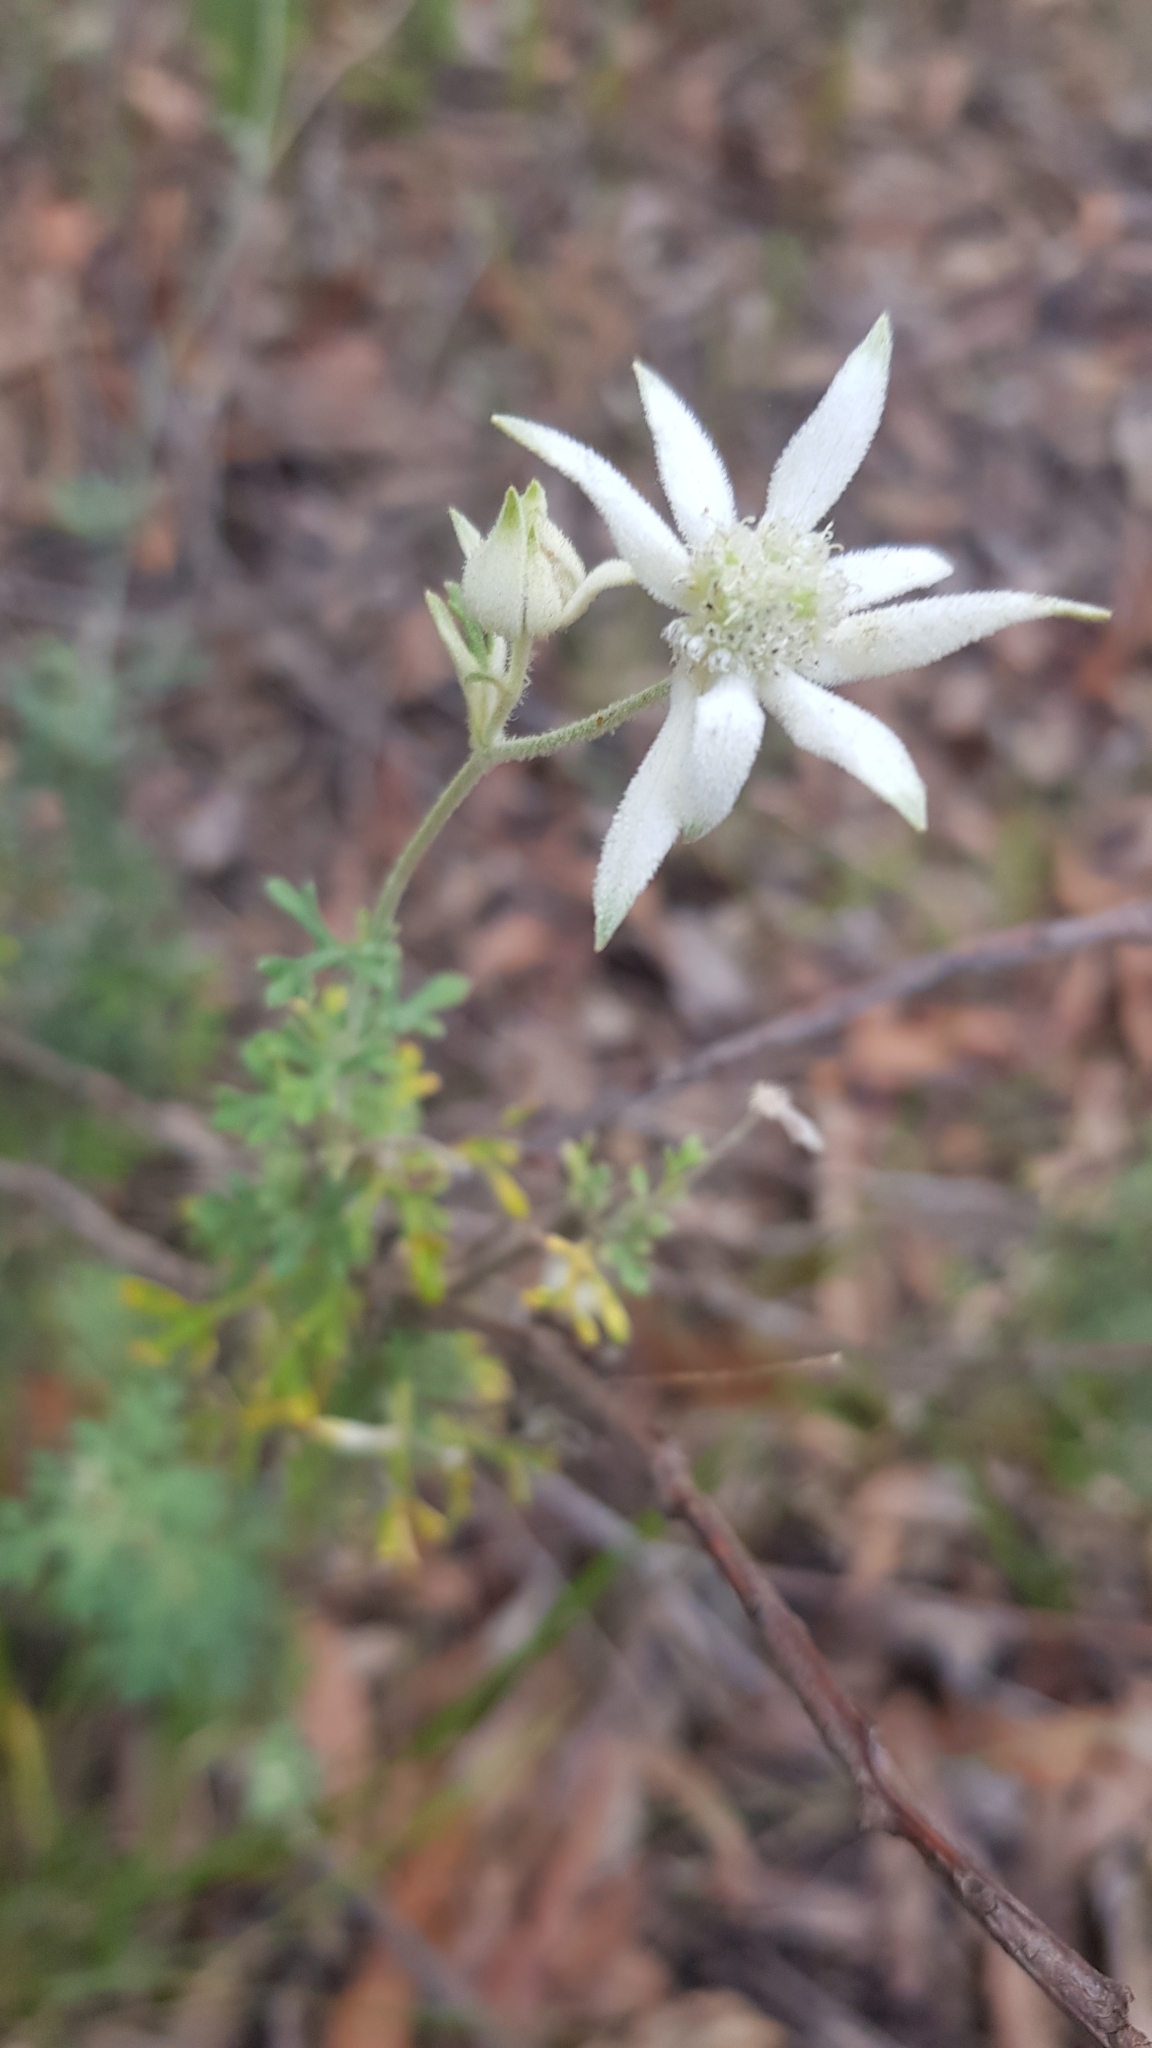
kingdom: Plantae
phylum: Tracheophyta
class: Magnoliopsida
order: Apiales
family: Apiaceae
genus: Actinotus
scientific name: Actinotus helianthi
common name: Flannel-flower
